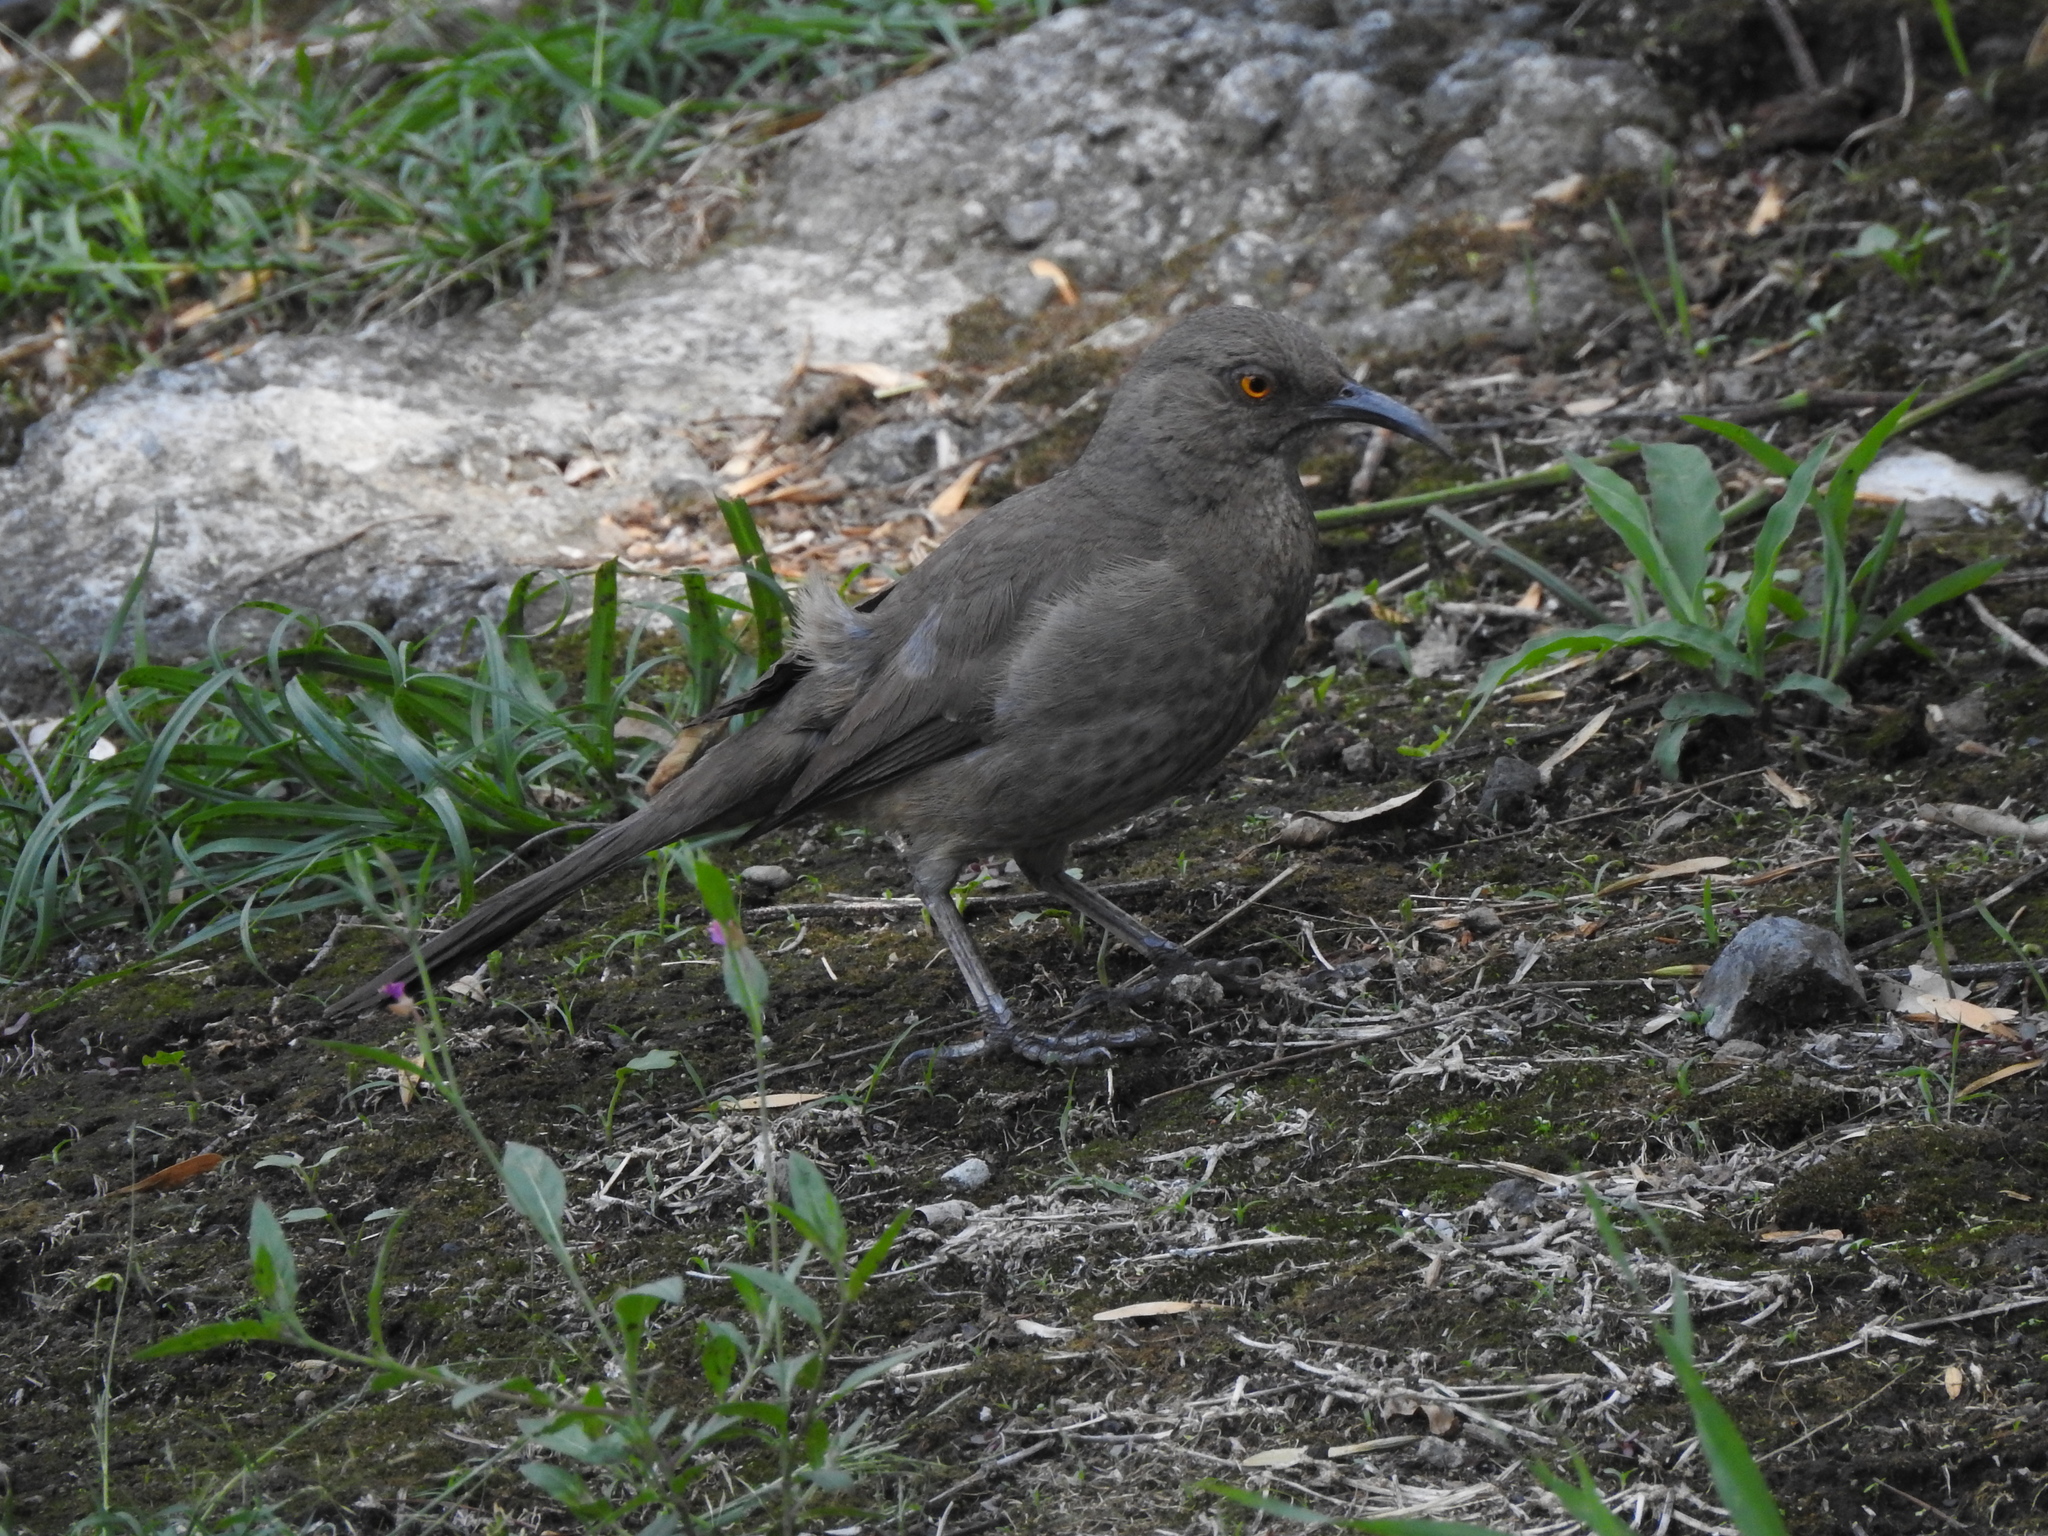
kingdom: Animalia
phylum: Chordata
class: Aves
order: Passeriformes
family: Mimidae
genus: Toxostoma
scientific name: Toxostoma curvirostre
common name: Curve-billed thrasher
